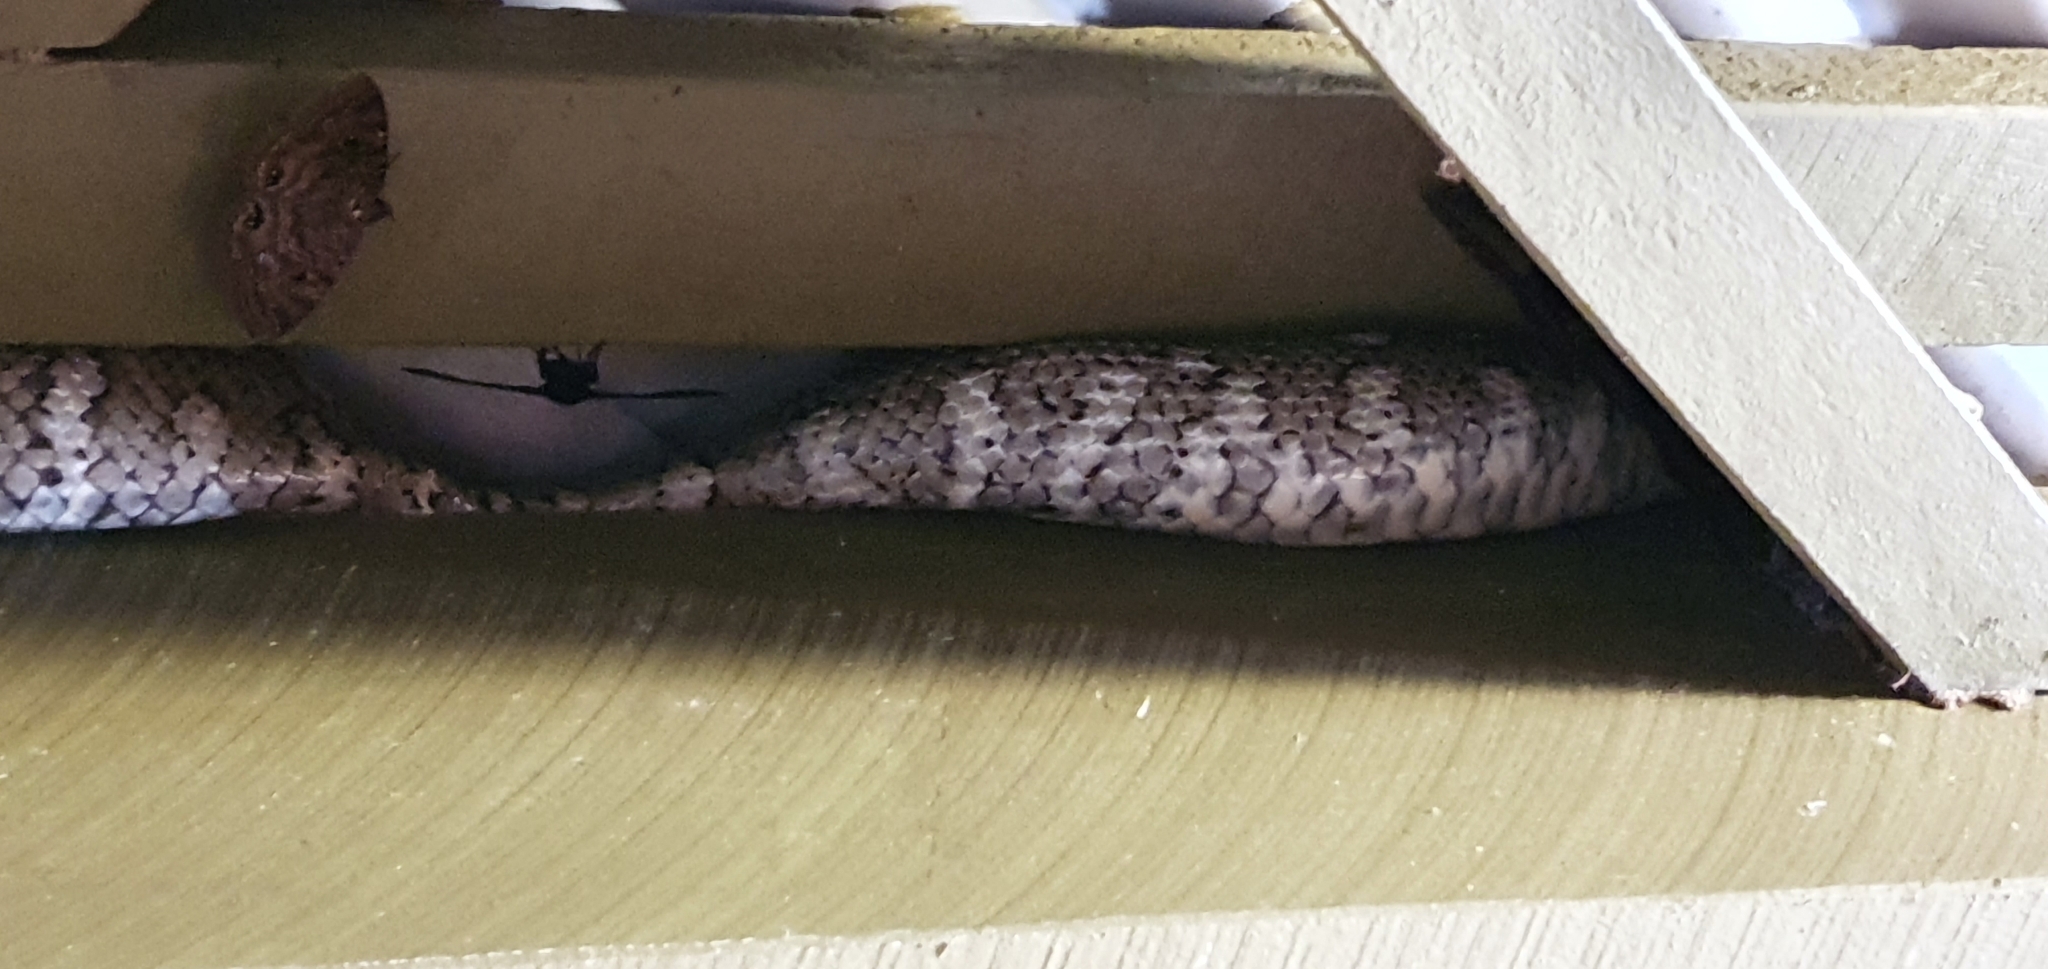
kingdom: Animalia
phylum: Chordata
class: Squamata
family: Pythonidae
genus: Morelia
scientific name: Morelia spilota
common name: Carpet python
